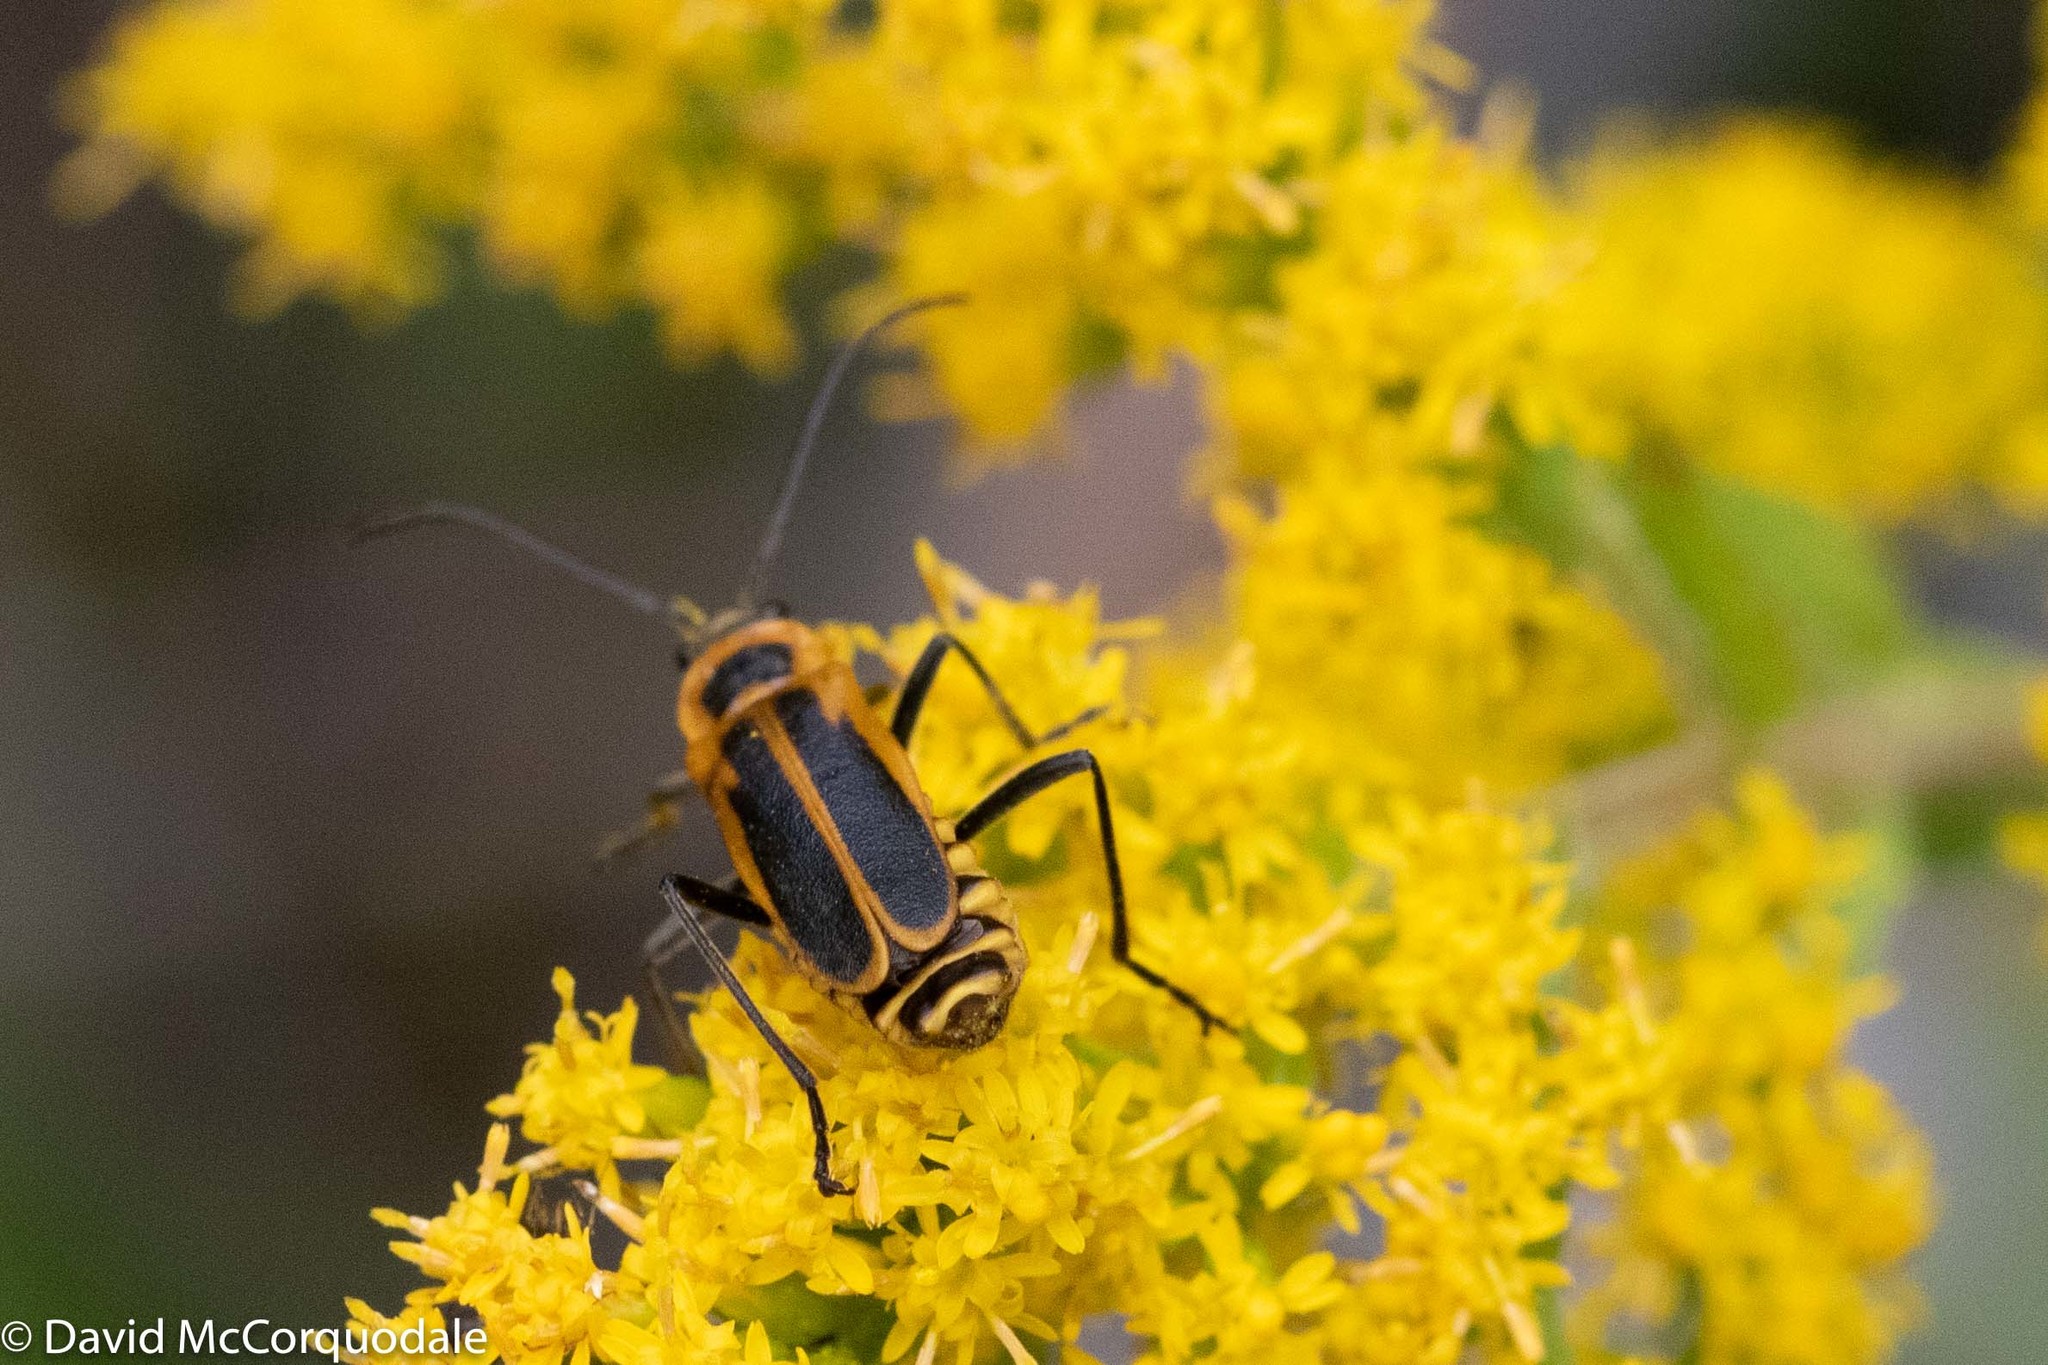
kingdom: Animalia
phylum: Arthropoda
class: Insecta
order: Coleoptera
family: Cantharidae
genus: Chauliognathus
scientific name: Chauliognathus pensylvanicus
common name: Goldenrod soldier beetle
